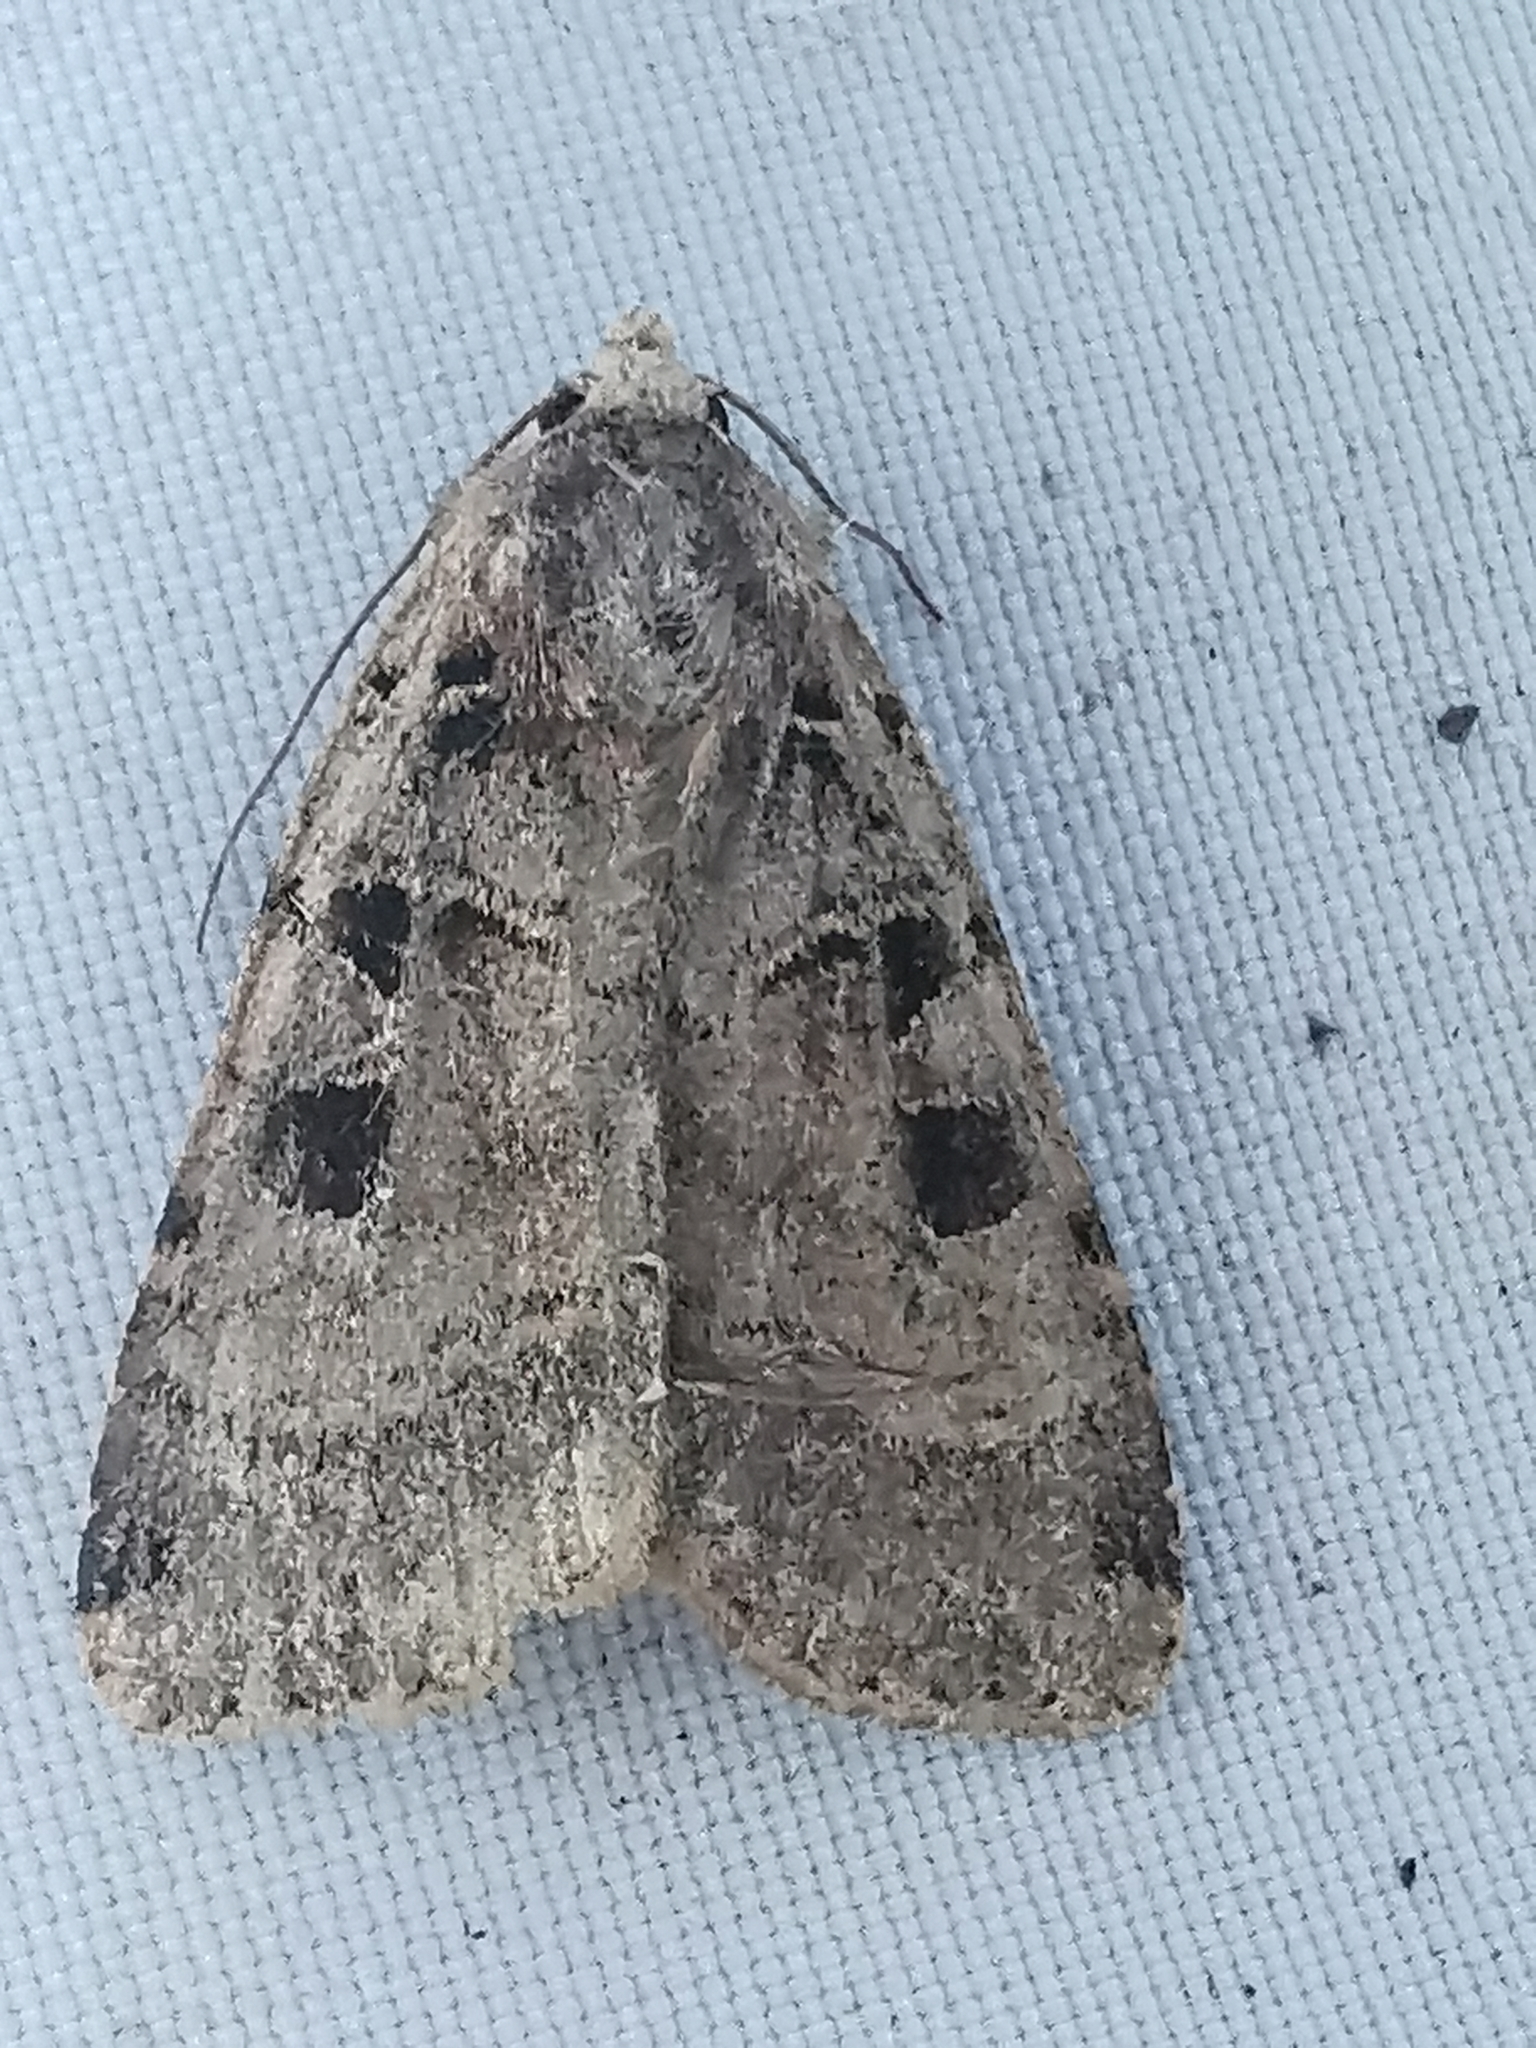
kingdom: Animalia
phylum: Arthropoda
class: Insecta
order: Lepidoptera
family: Noctuidae
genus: Xestia
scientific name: Xestia triangulum
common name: Double square-spot
